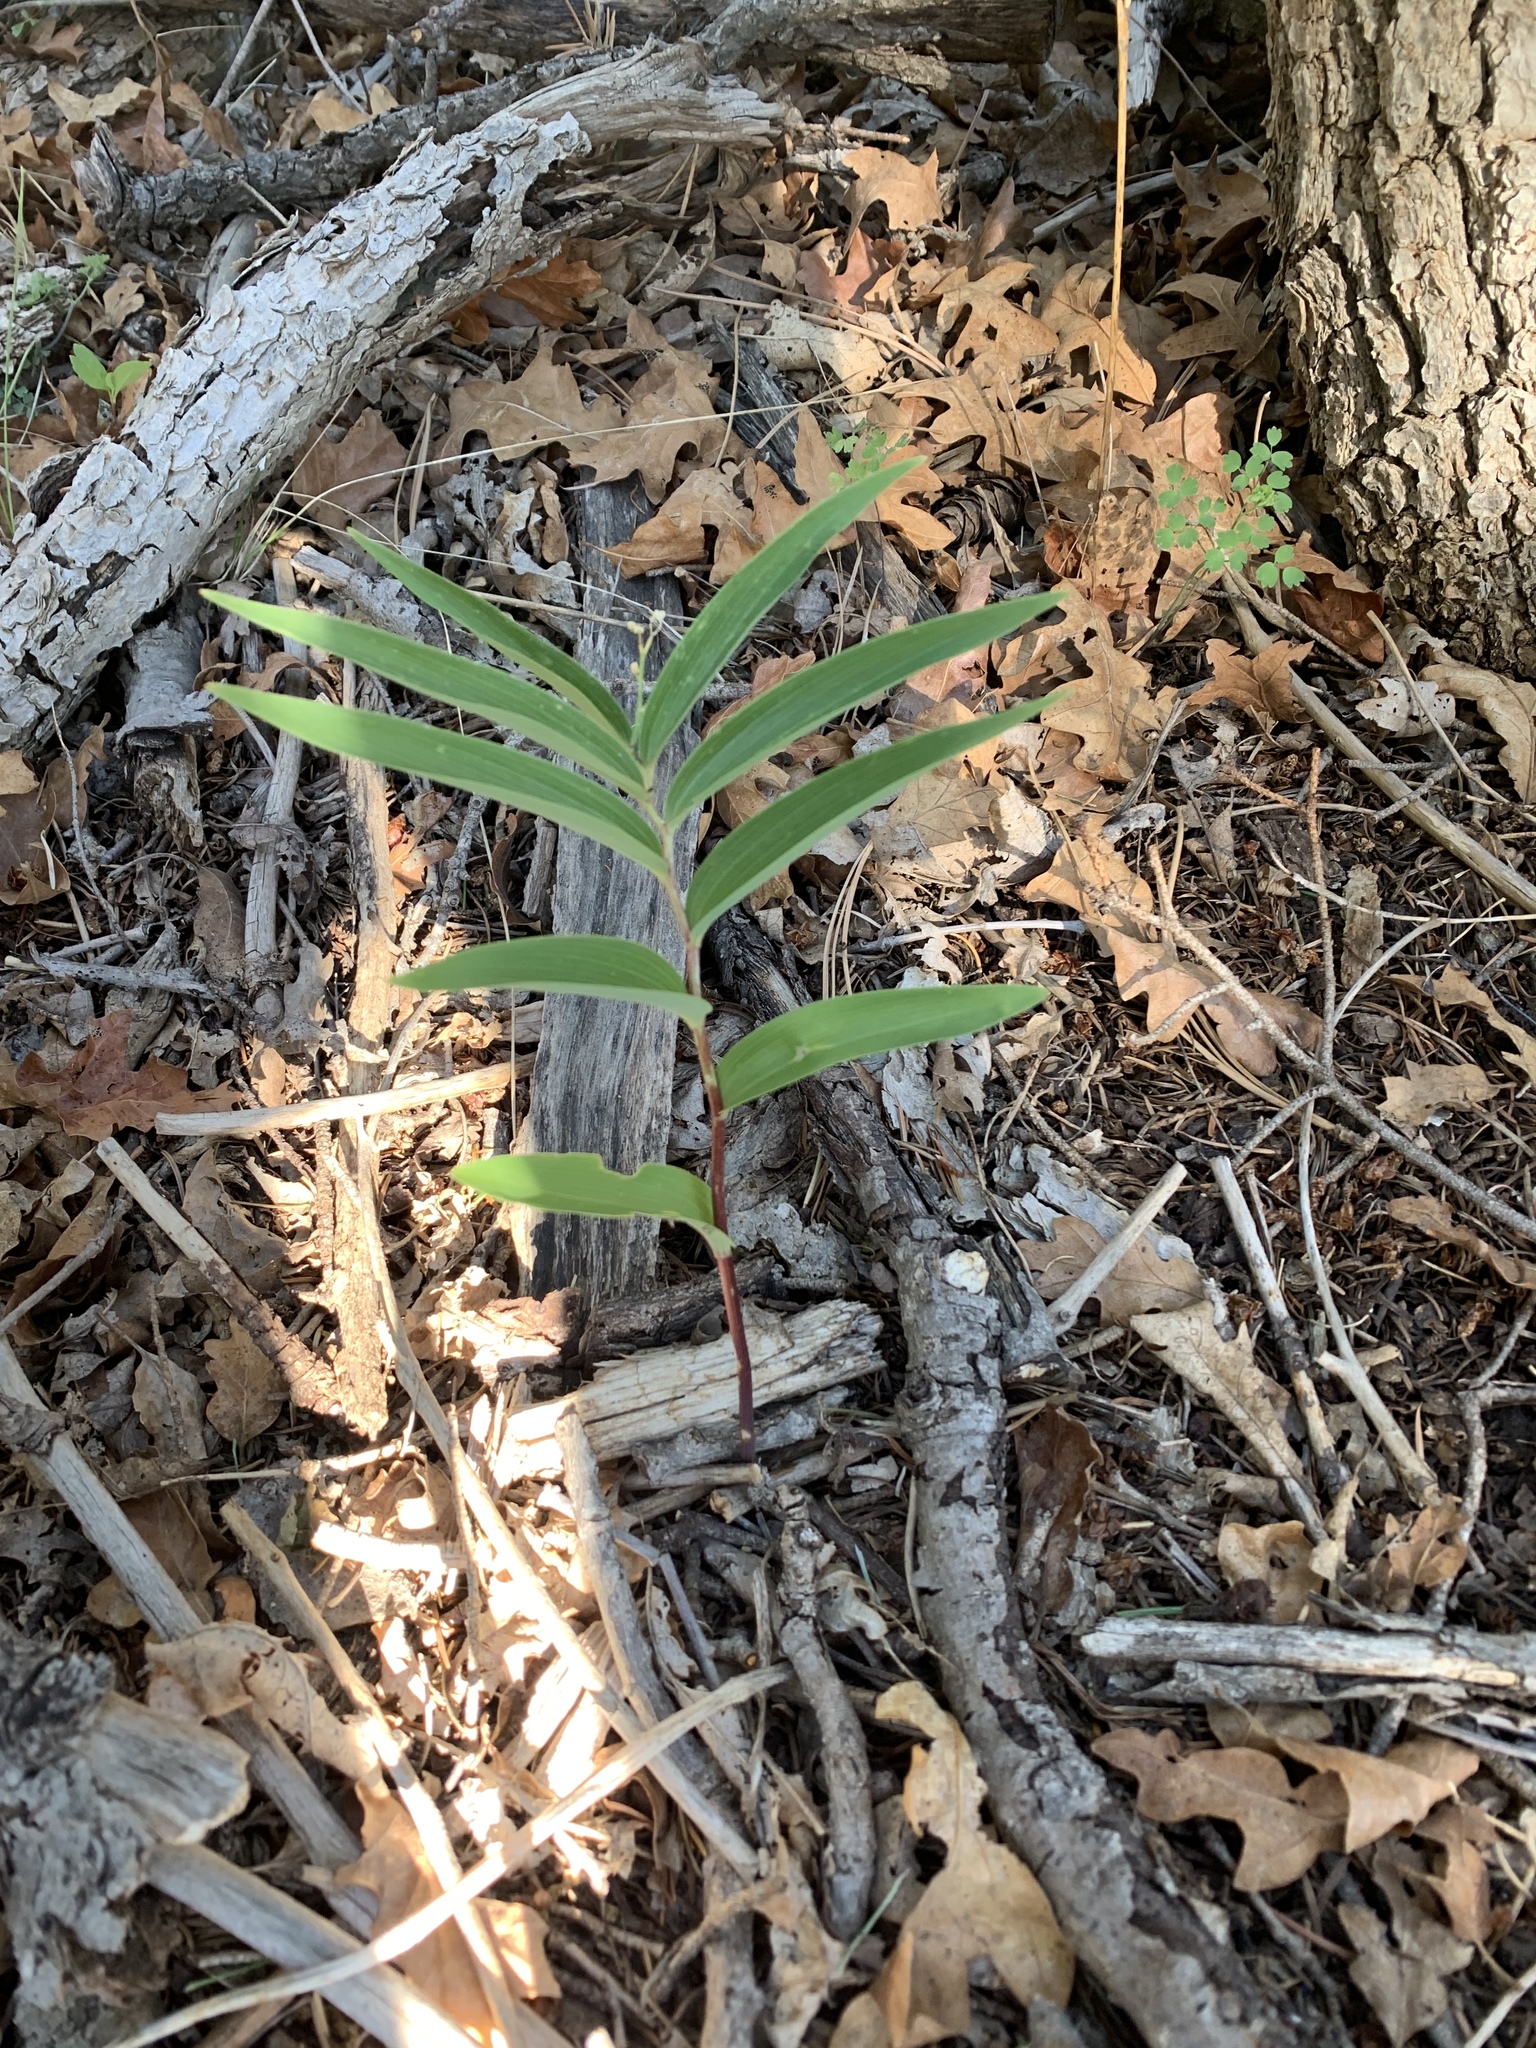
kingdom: Plantae
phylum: Tracheophyta
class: Liliopsida
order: Asparagales
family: Asparagaceae
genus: Maianthemum
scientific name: Maianthemum stellatum
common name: Little false solomon's seal
